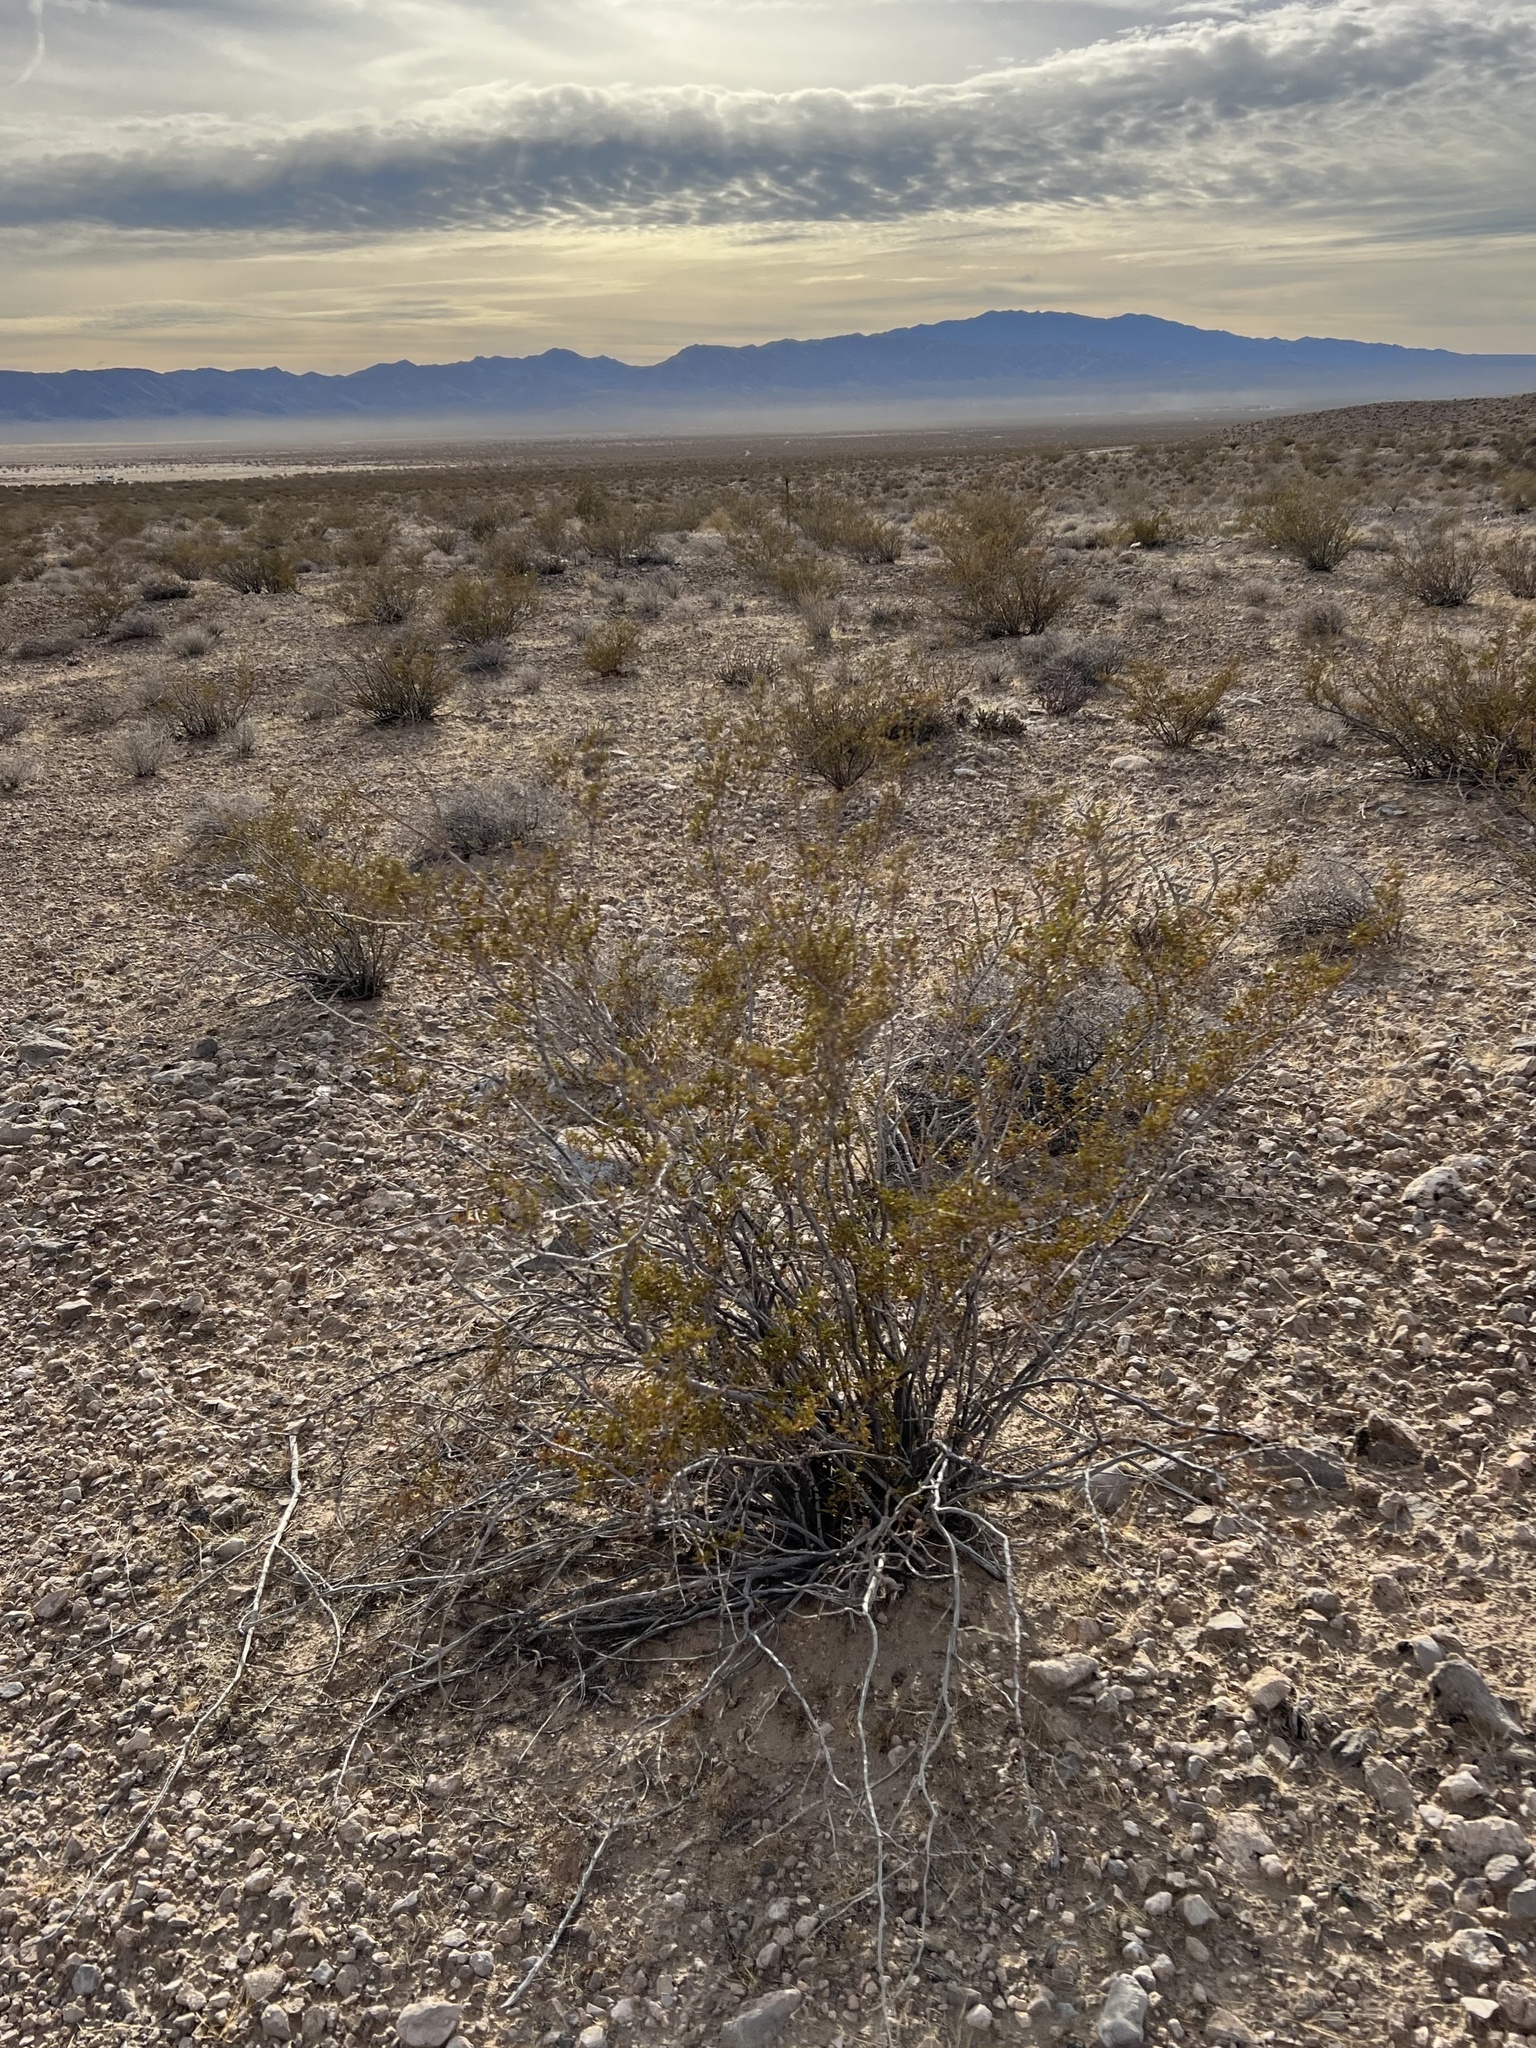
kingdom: Plantae
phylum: Tracheophyta
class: Magnoliopsida
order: Zygophyllales
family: Zygophyllaceae
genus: Larrea
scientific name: Larrea tridentata
